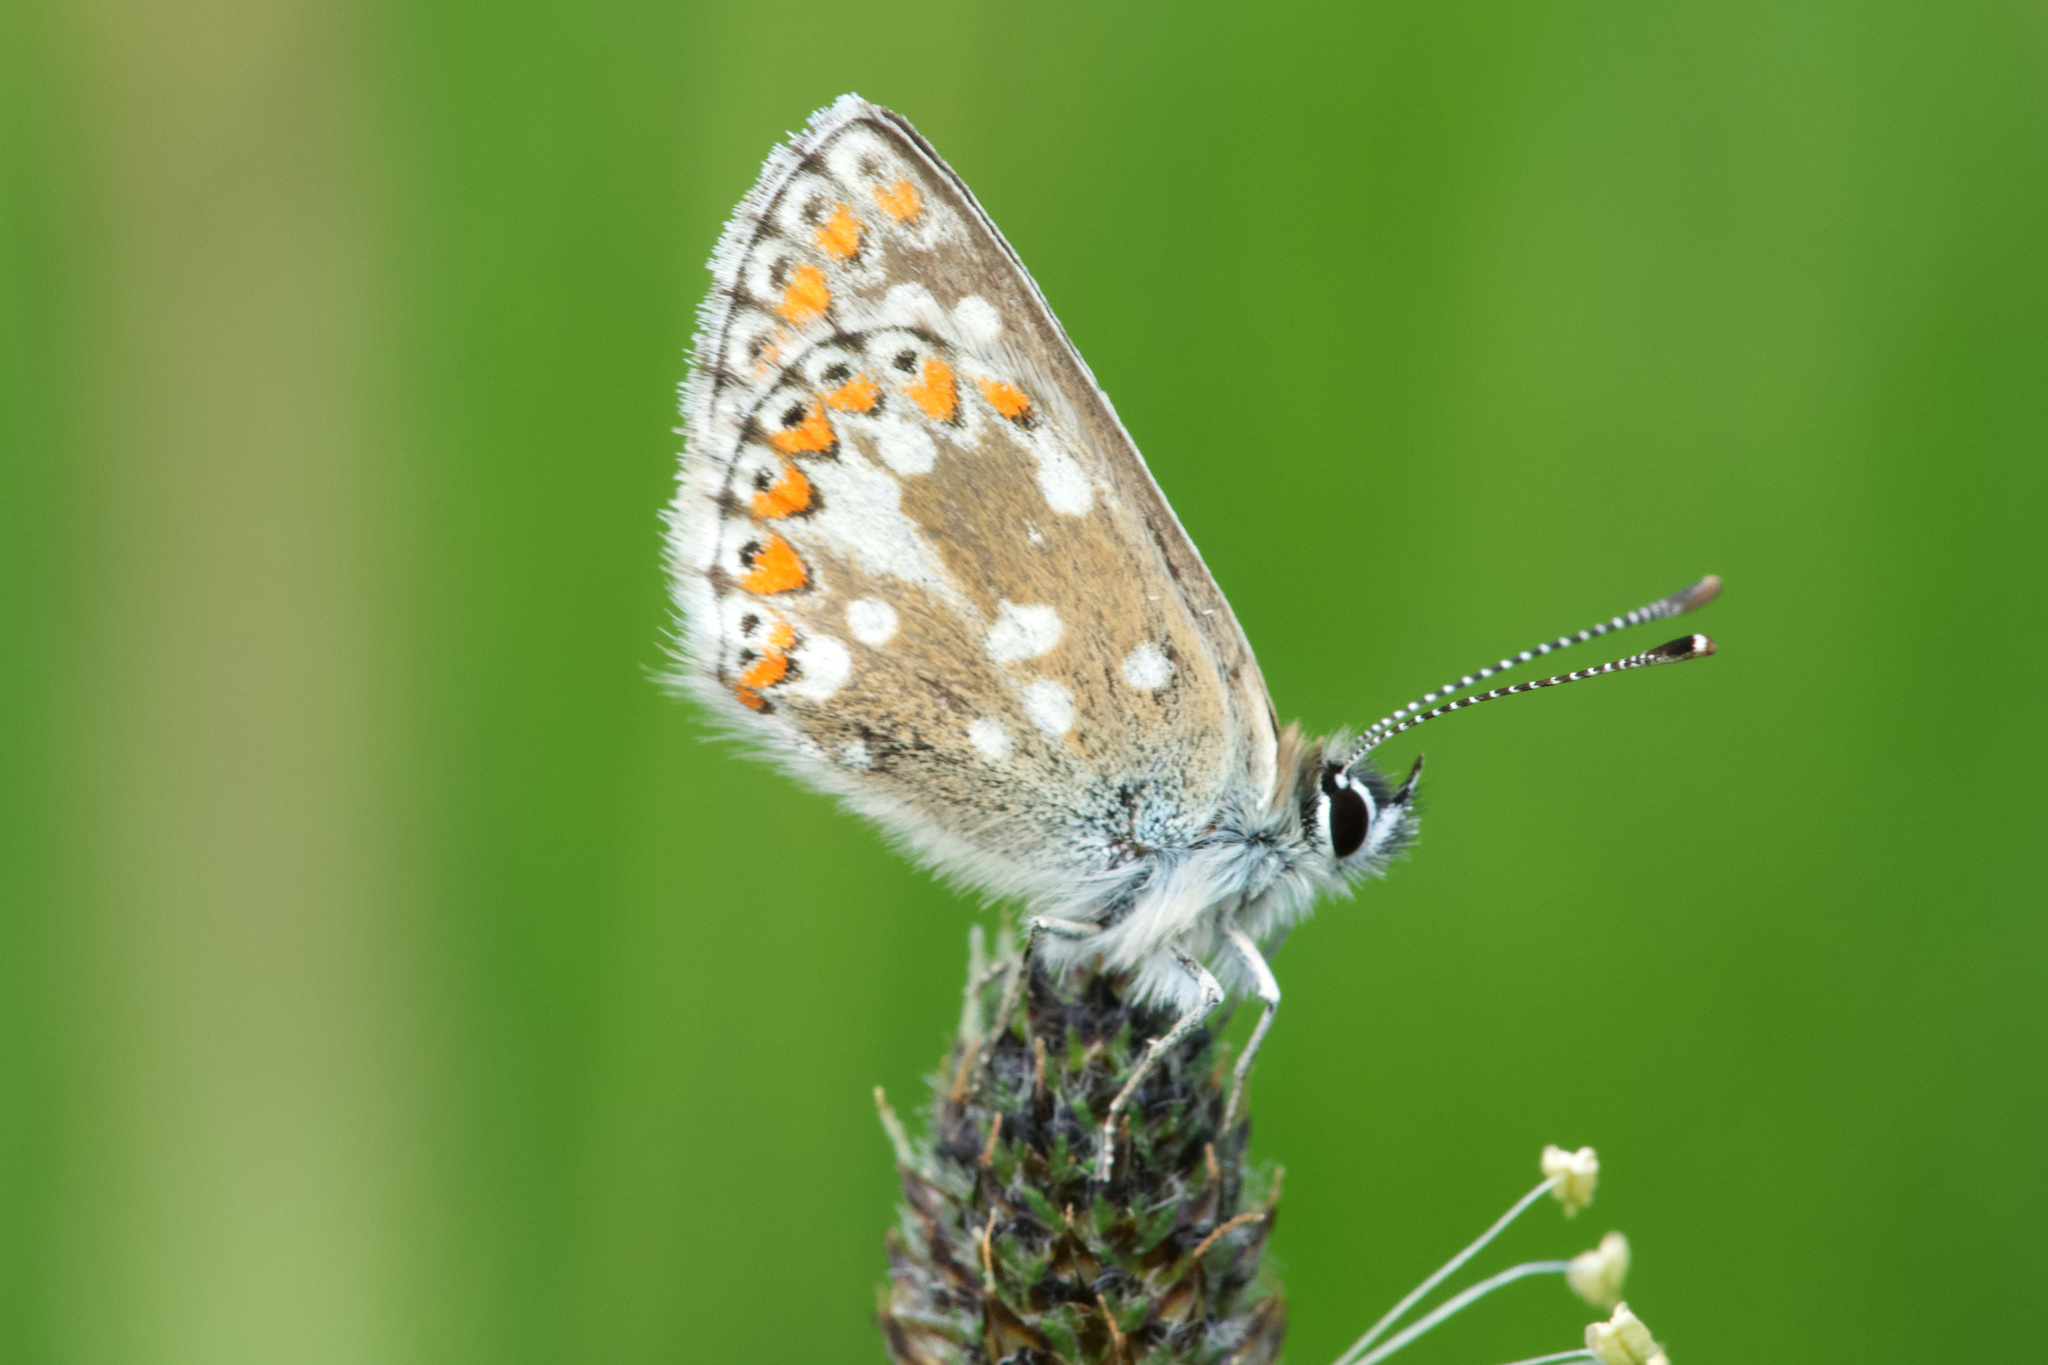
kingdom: Animalia
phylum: Arthropoda
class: Insecta
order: Lepidoptera
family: Lycaenidae
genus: Aricia
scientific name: Aricia artaxerxes
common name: Northern brown argus
